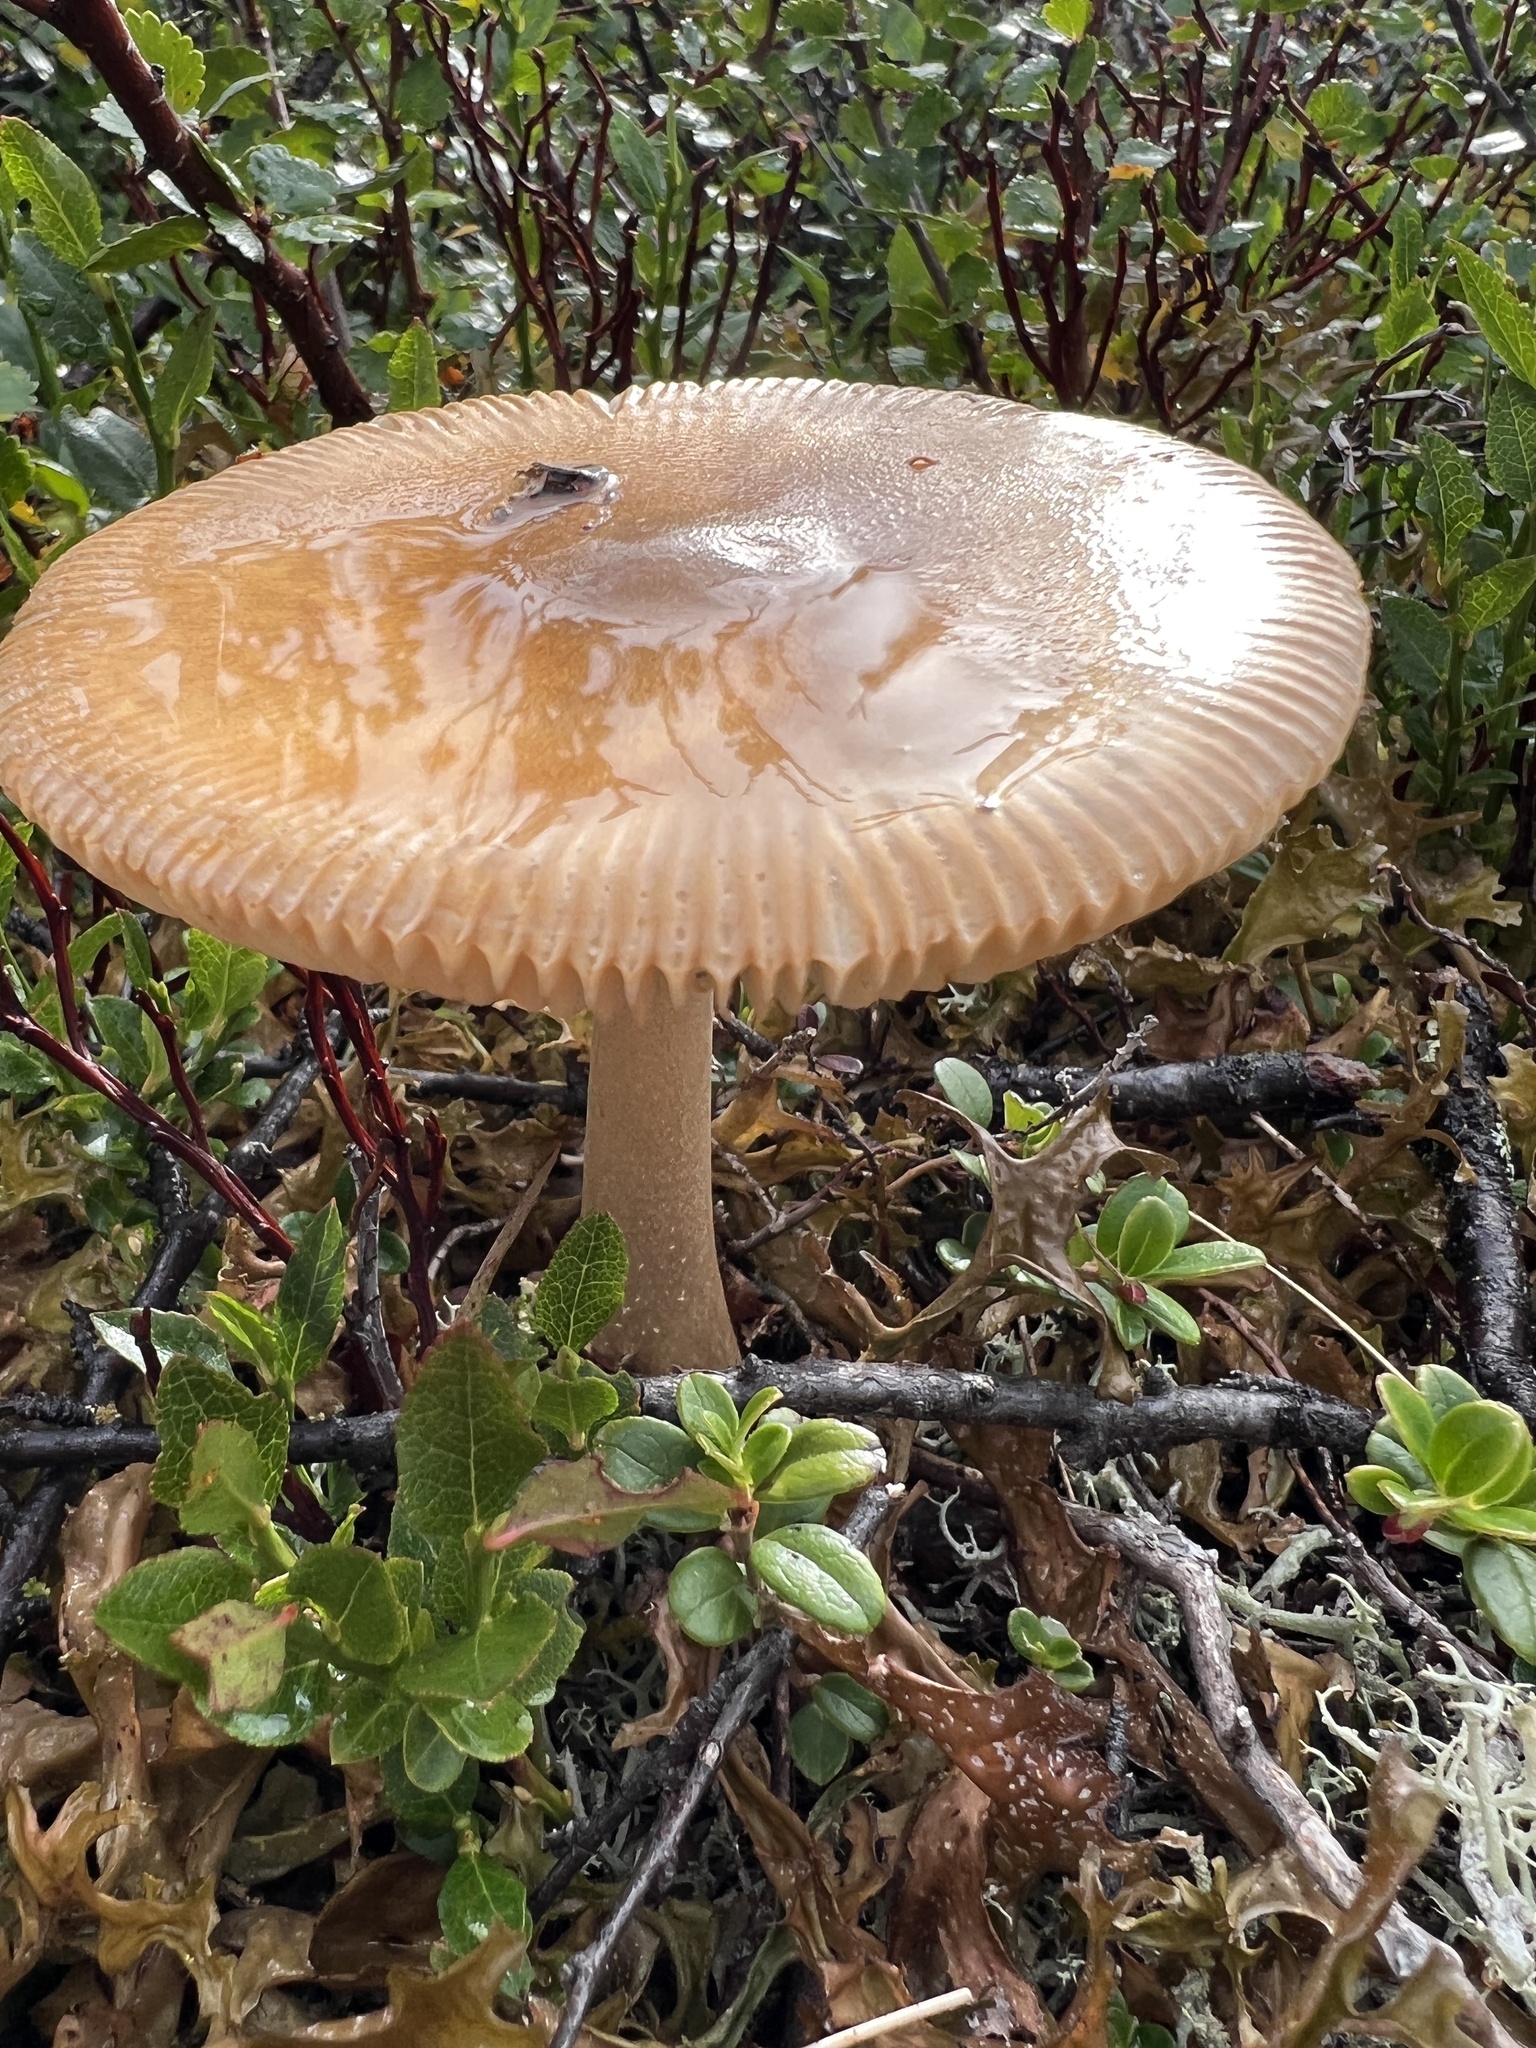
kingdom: Fungi
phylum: Basidiomycota
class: Agaricomycetes
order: Agaricales
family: Amanitaceae
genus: Amanita
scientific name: Amanita fulva
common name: Tawny grisette
